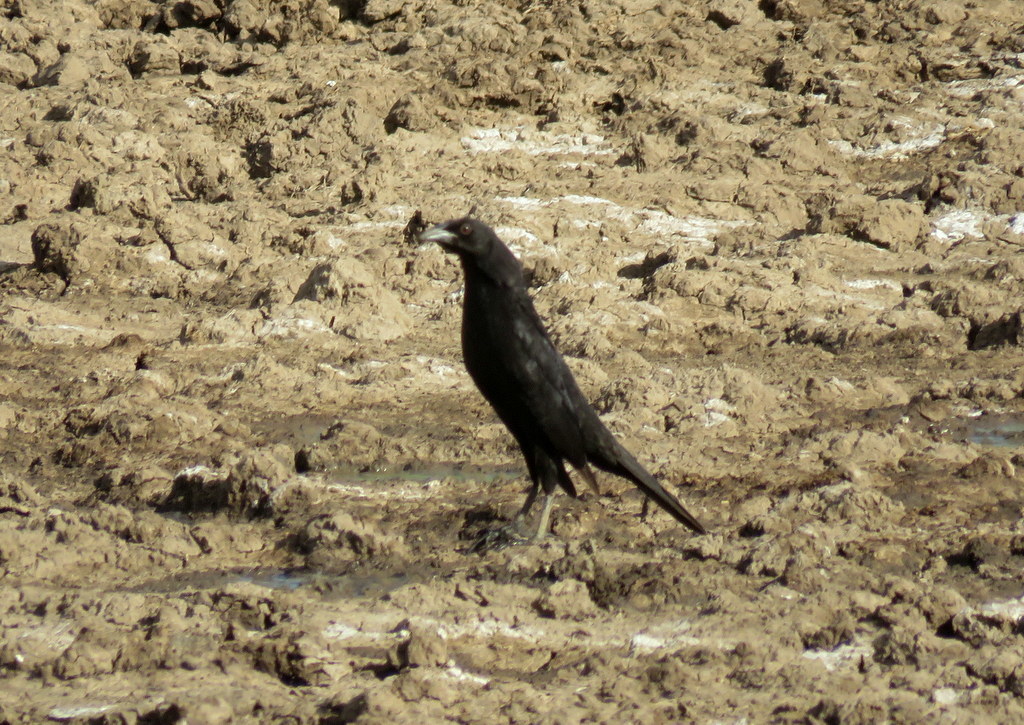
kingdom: Animalia
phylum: Chordata
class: Aves
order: Passeriformes
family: Icteridae
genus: Molothrus
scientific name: Molothrus oryzivorus
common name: Giant cowbird
